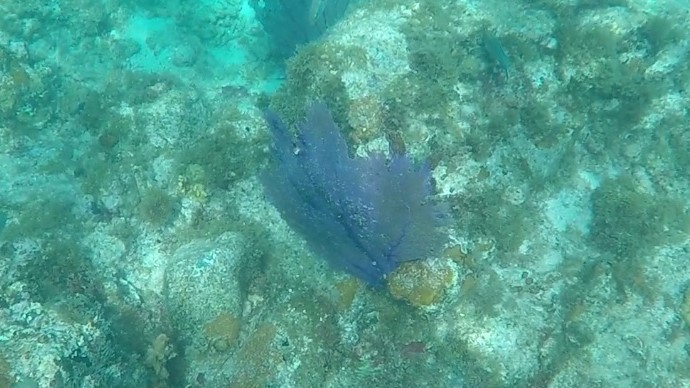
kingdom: Animalia
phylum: Cnidaria
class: Anthozoa
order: Malacalcyonacea
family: Gorgoniidae
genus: Gorgonia
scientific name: Gorgonia ventalina
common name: Common sea fan
